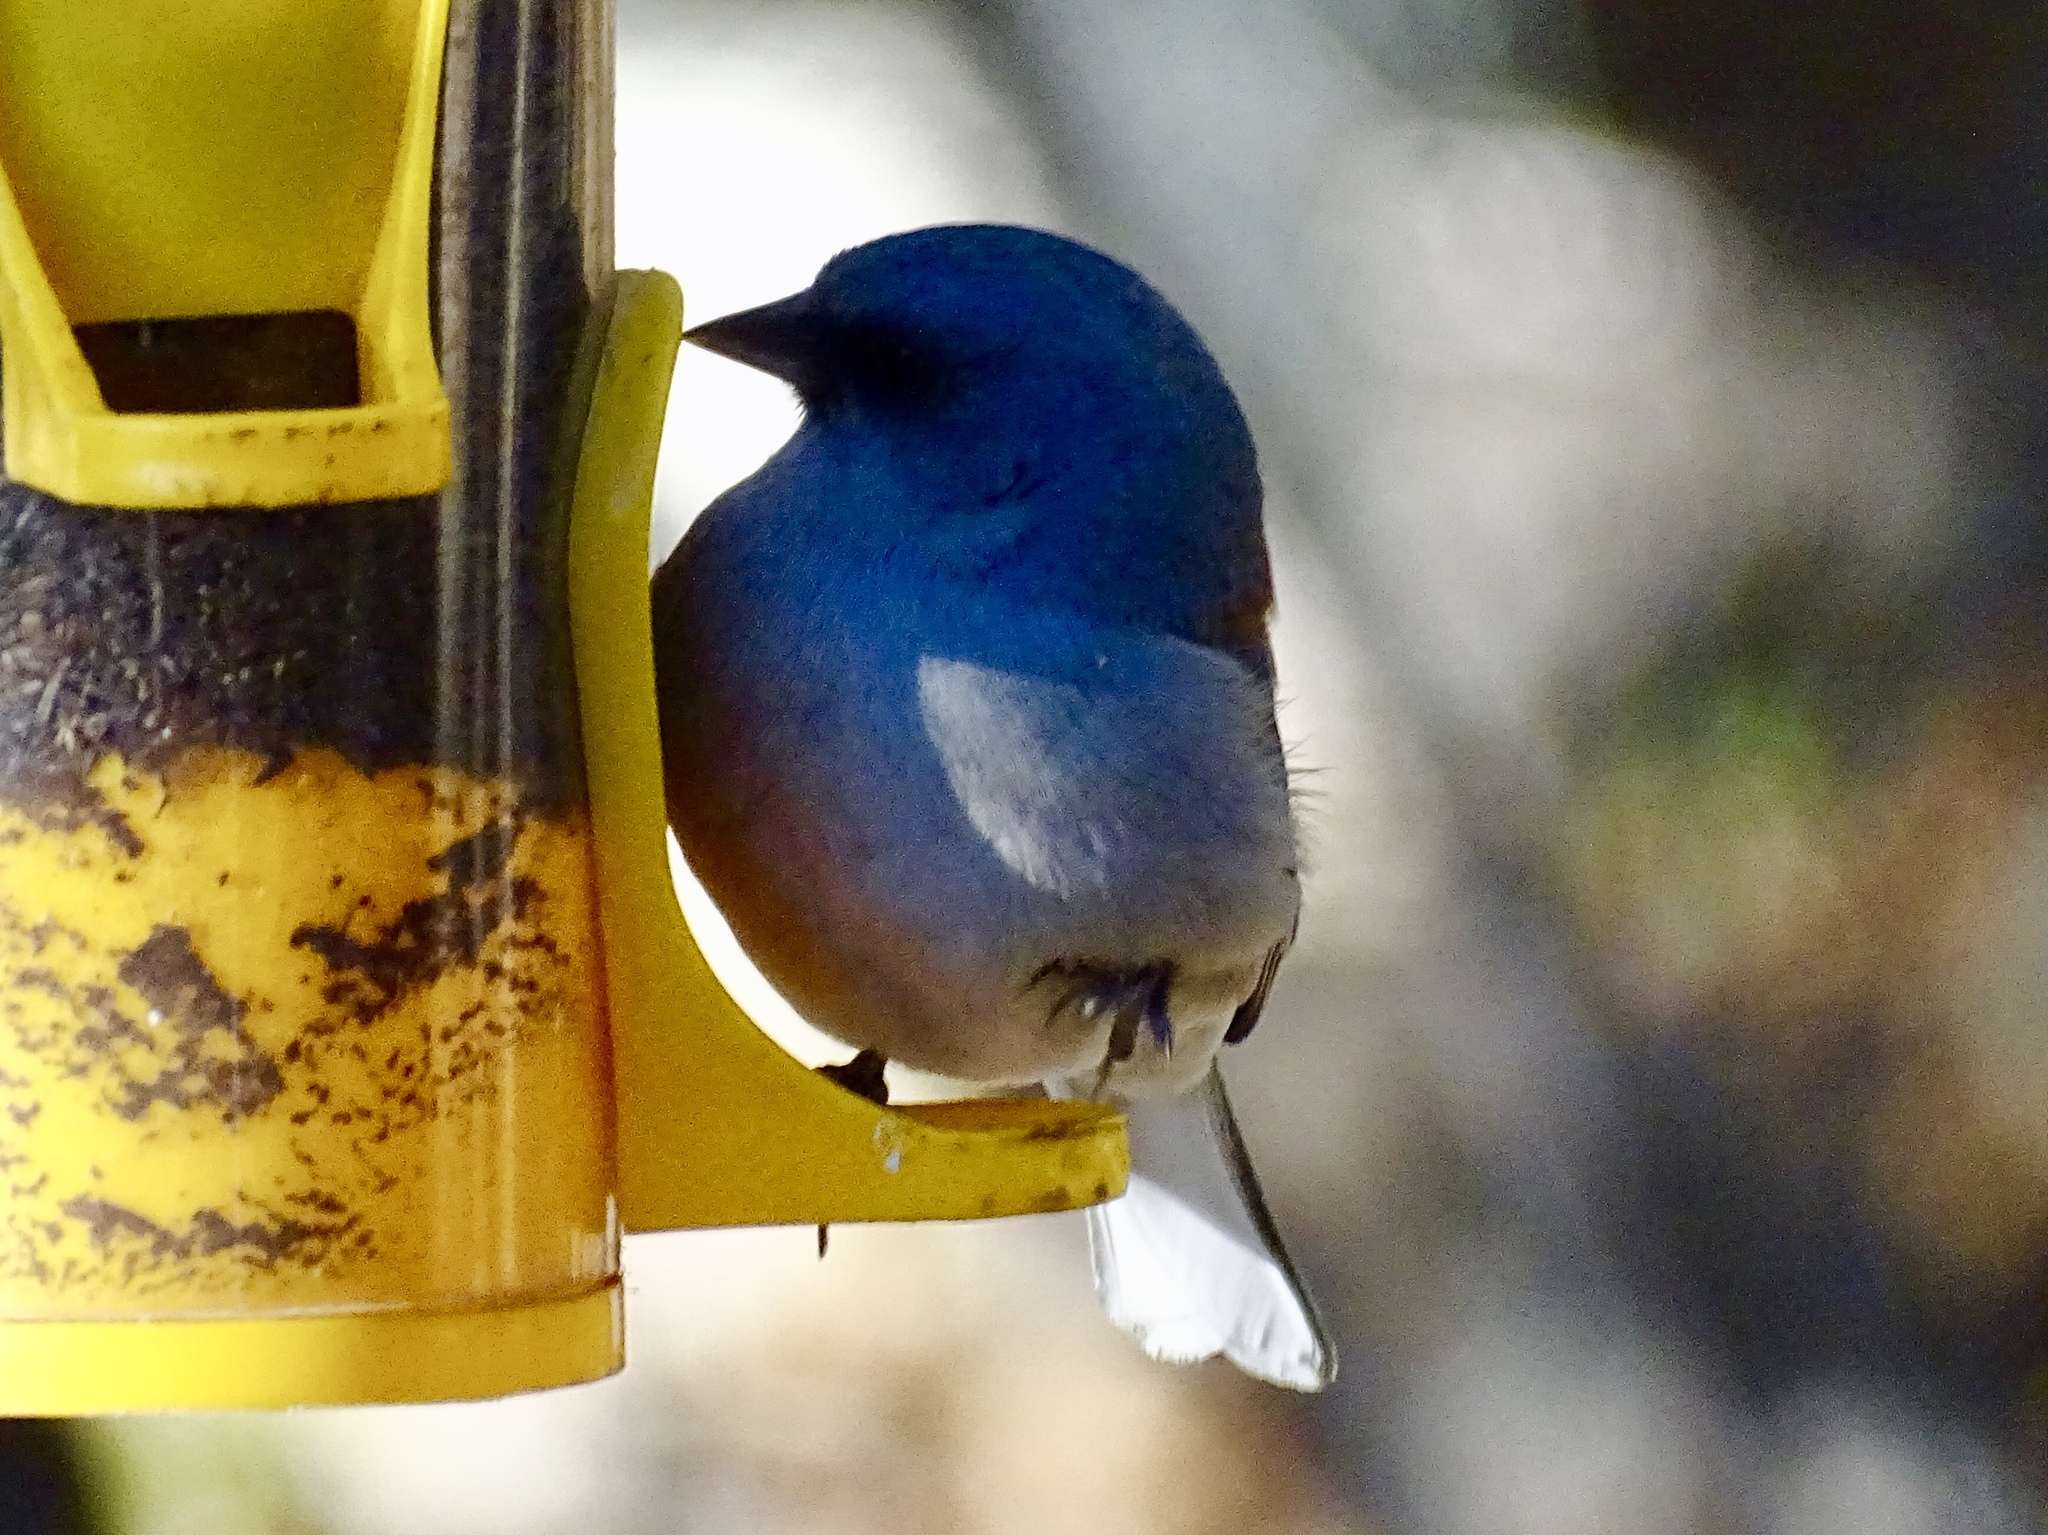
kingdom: Animalia
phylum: Chordata
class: Aves
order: Passeriformes
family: Passerellidae
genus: Junco
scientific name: Junco hyemalis
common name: Dark-eyed junco
